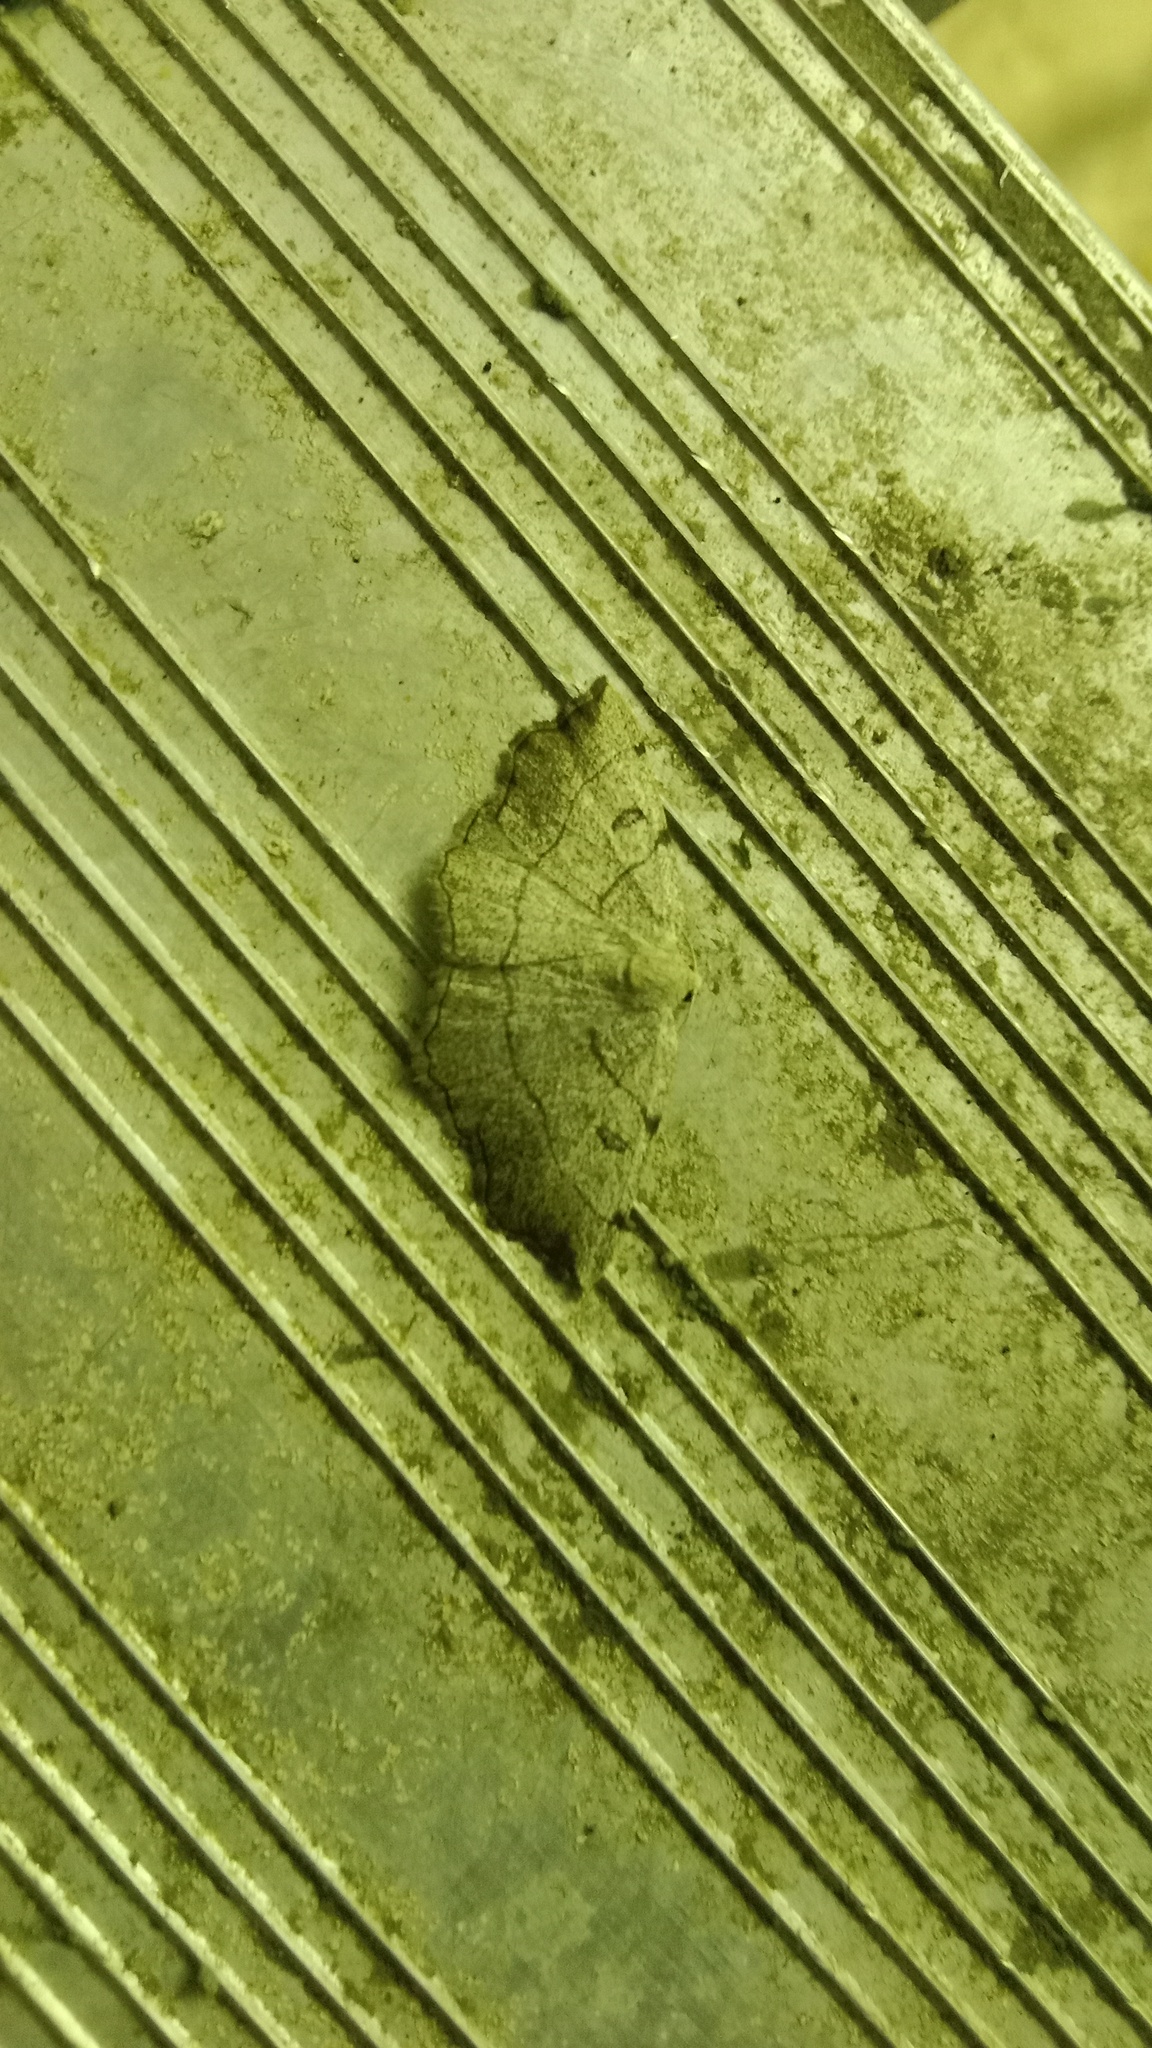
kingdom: Animalia
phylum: Arthropoda
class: Insecta
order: Lepidoptera
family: Geometridae
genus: Eilicrinia
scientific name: Eilicrinia trinotata
